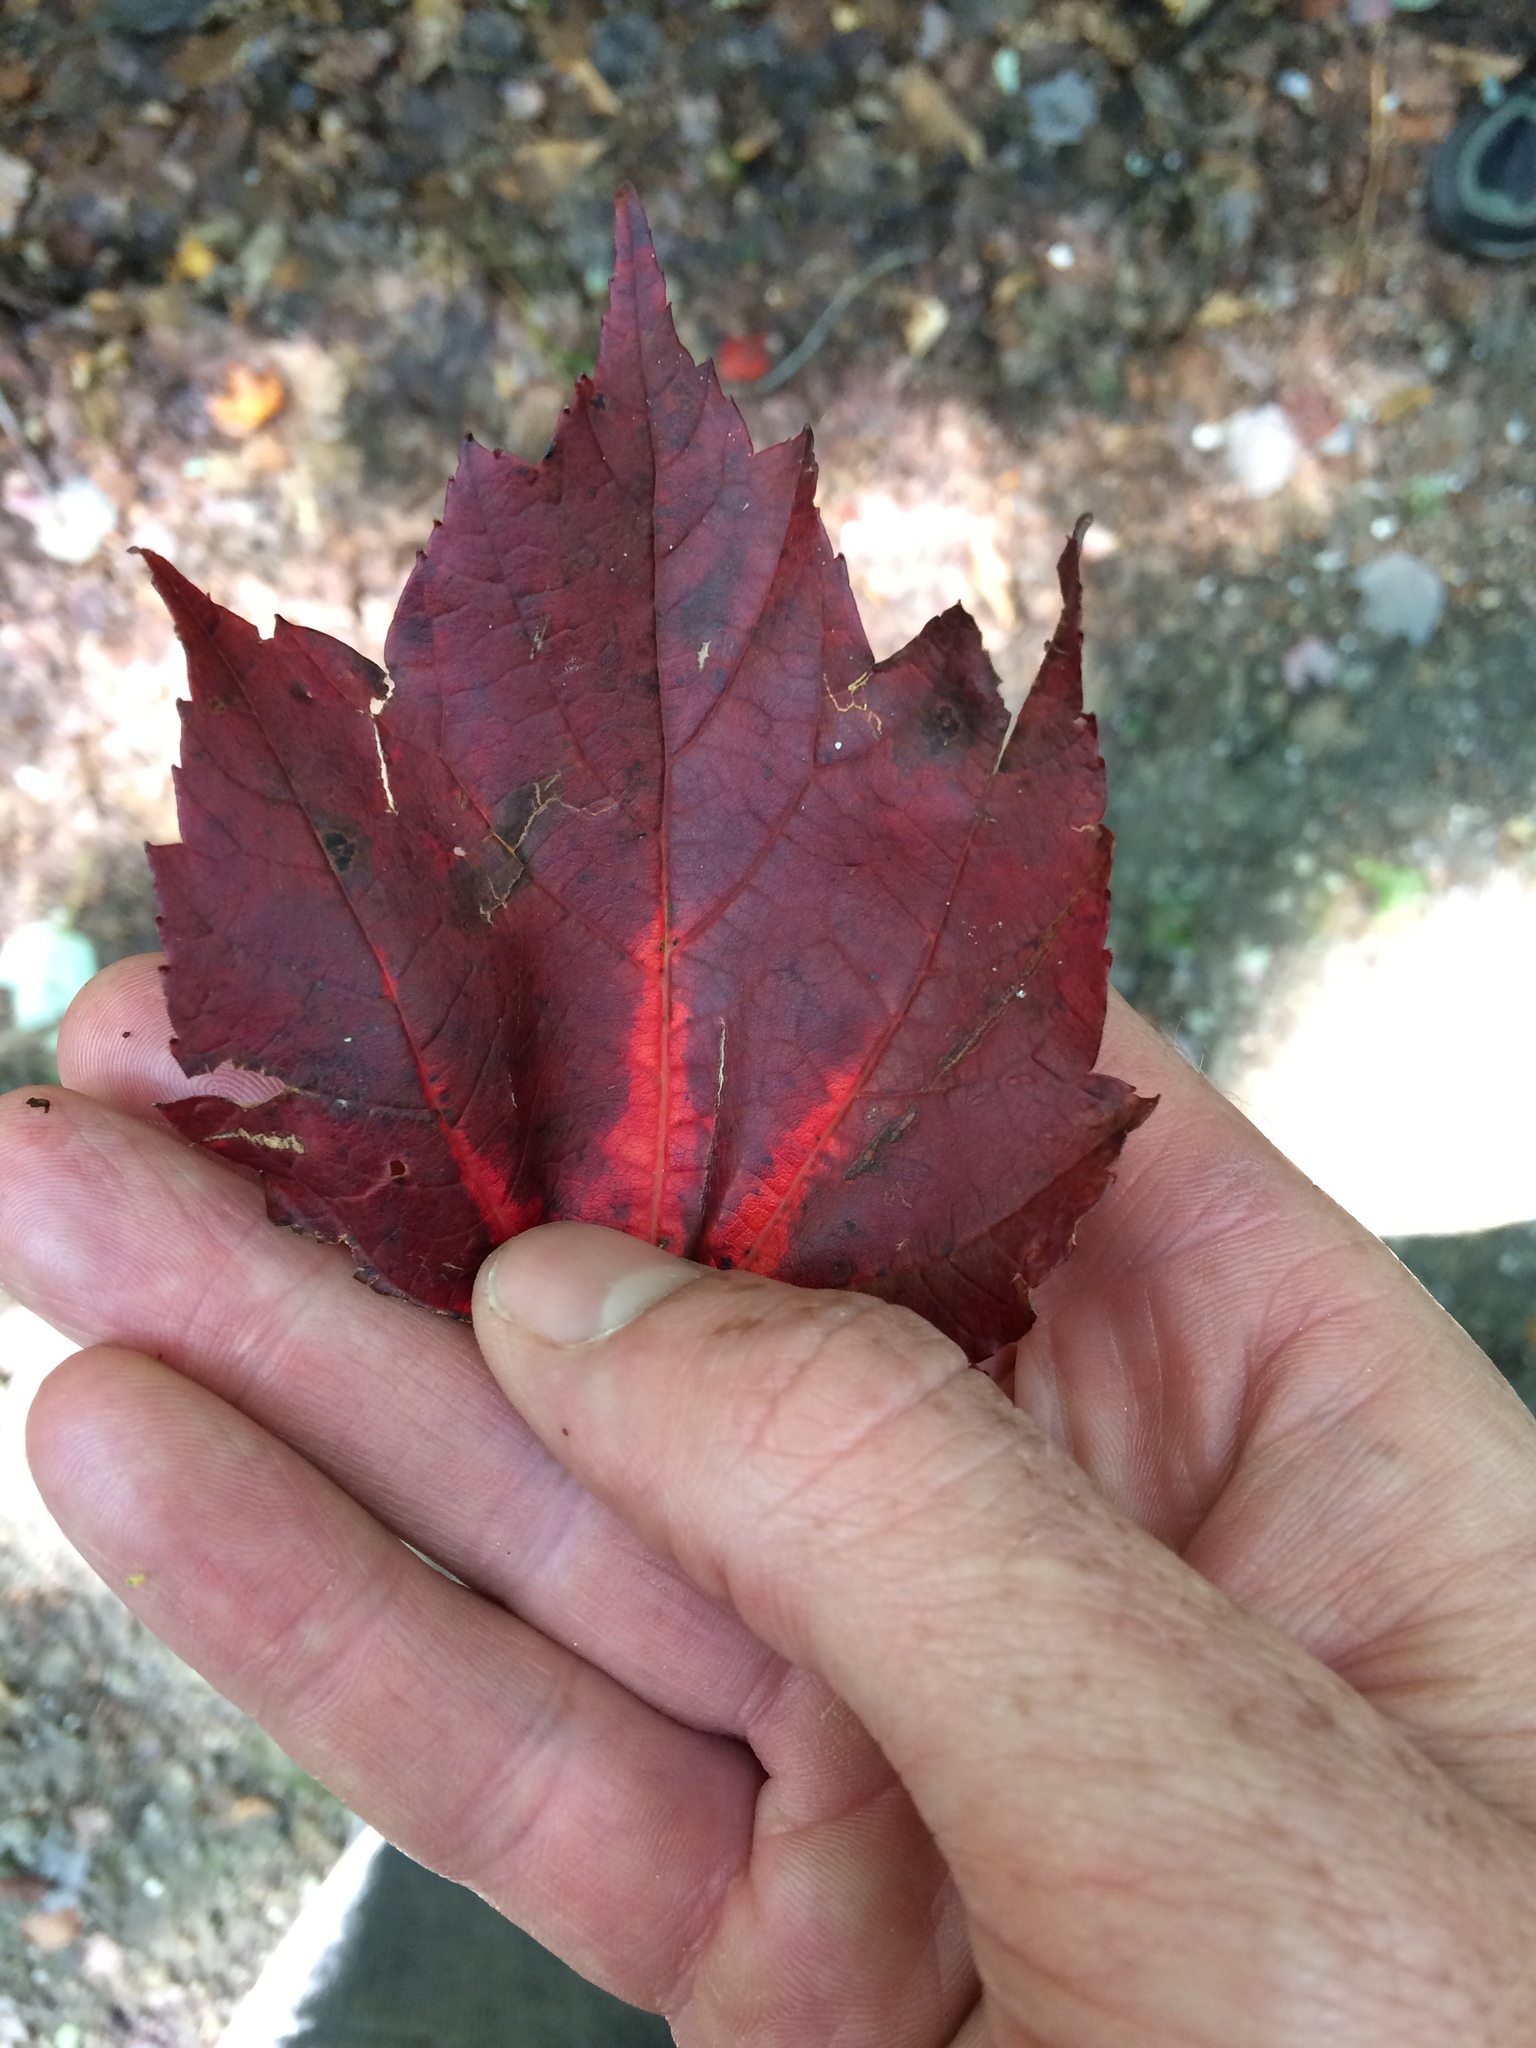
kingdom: Plantae
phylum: Tracheophyta
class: Magnoliopsida
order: Sapindales
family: Sapindaceae
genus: Acer
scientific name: Acer rubrum
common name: Red maple
